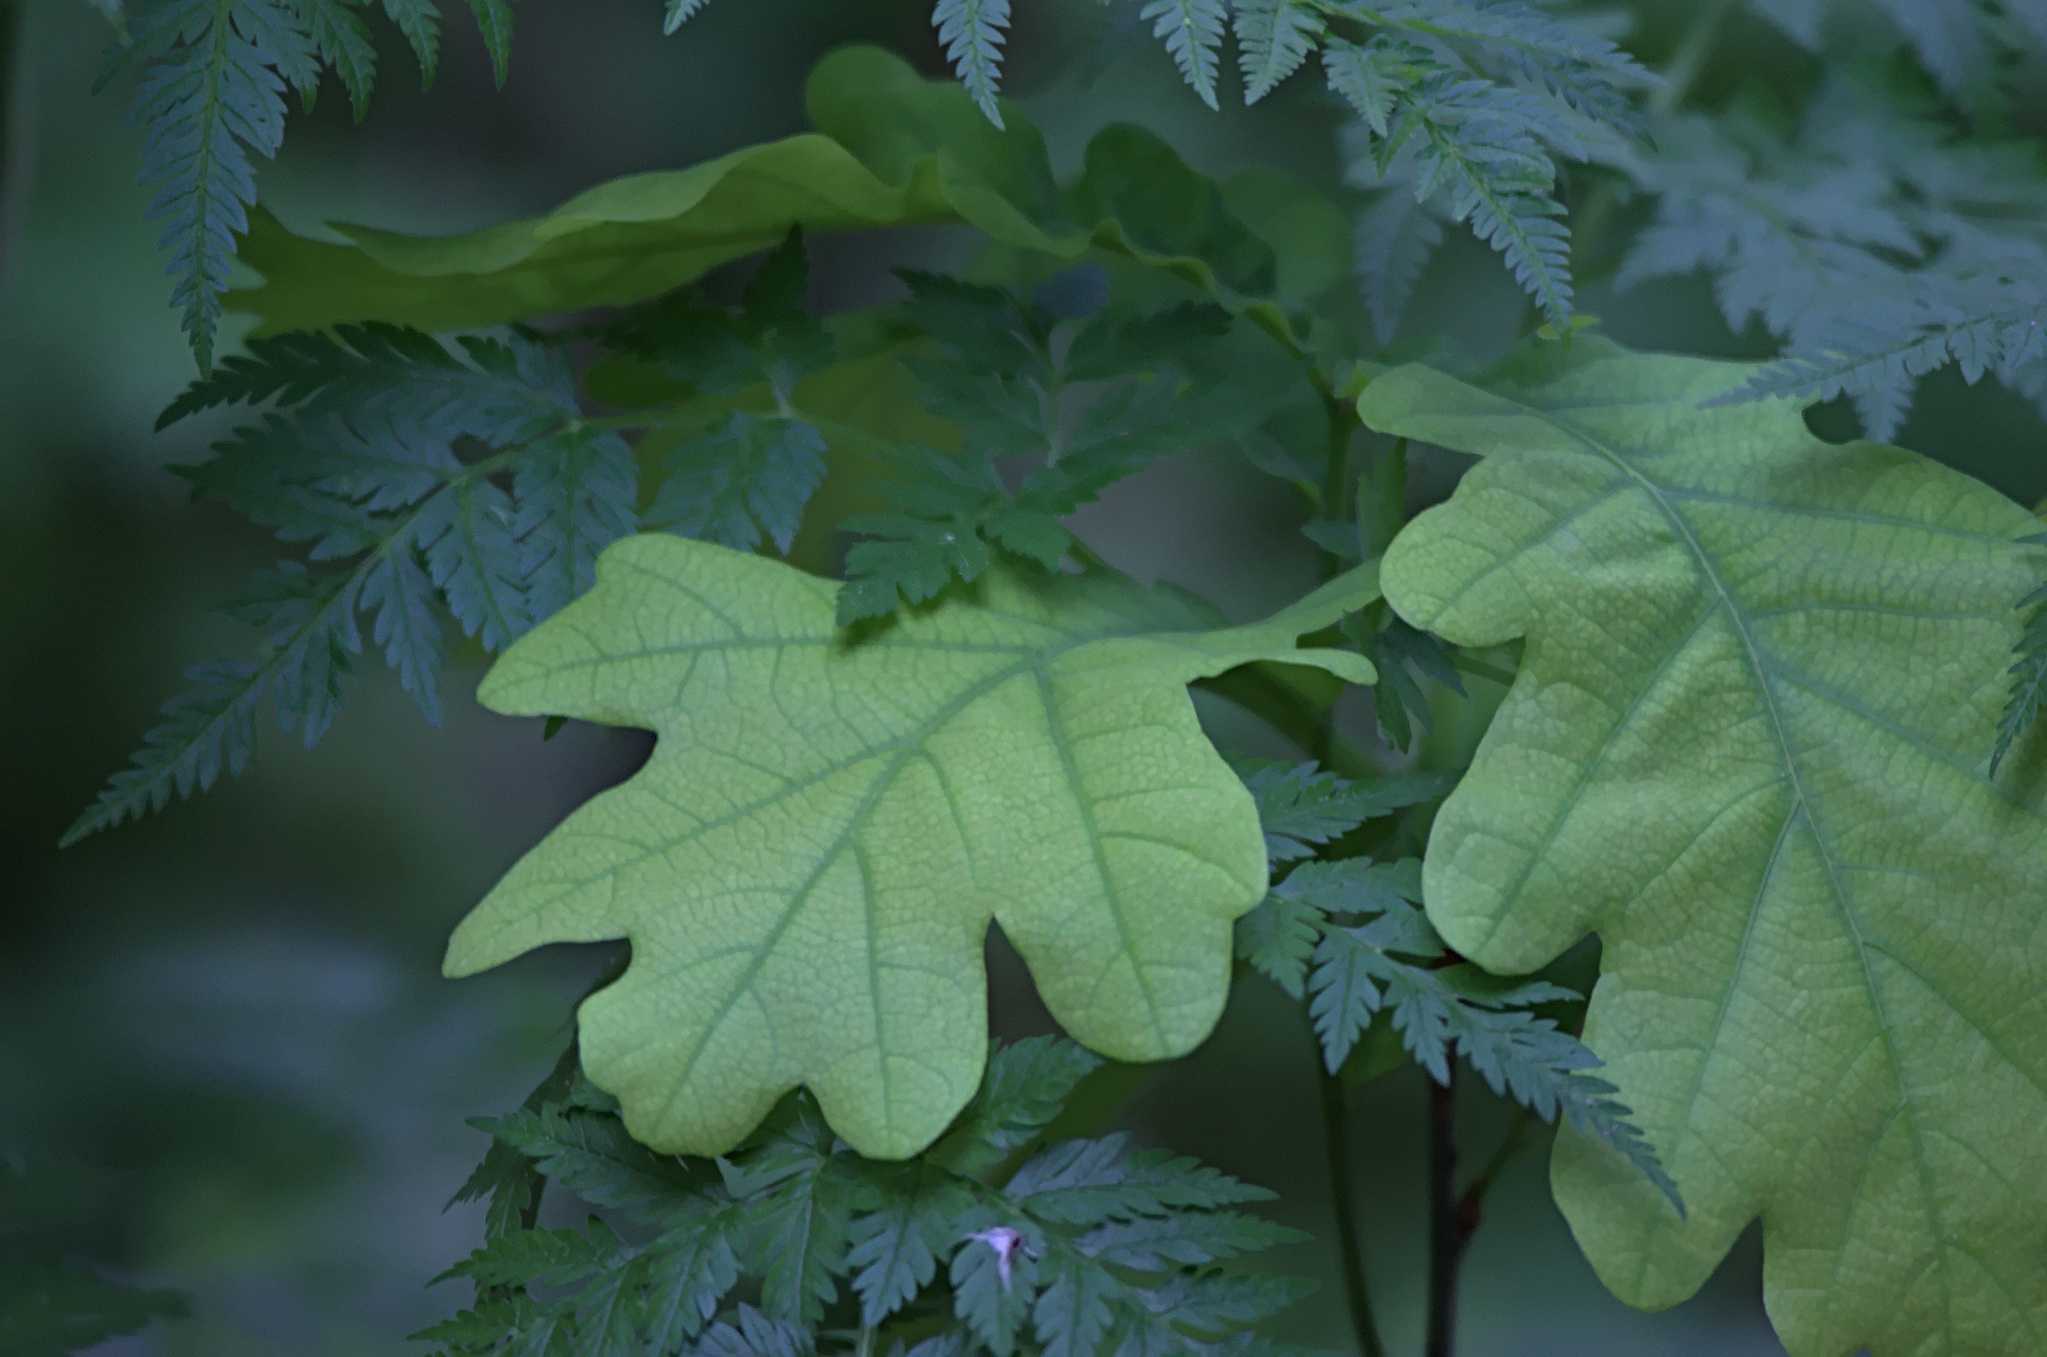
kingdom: Plantae
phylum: Tracheophyta
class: Magnoliopsida
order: Fagales
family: Fagaceae
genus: Quercus
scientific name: Quercus robur
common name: Pedunculate oak
